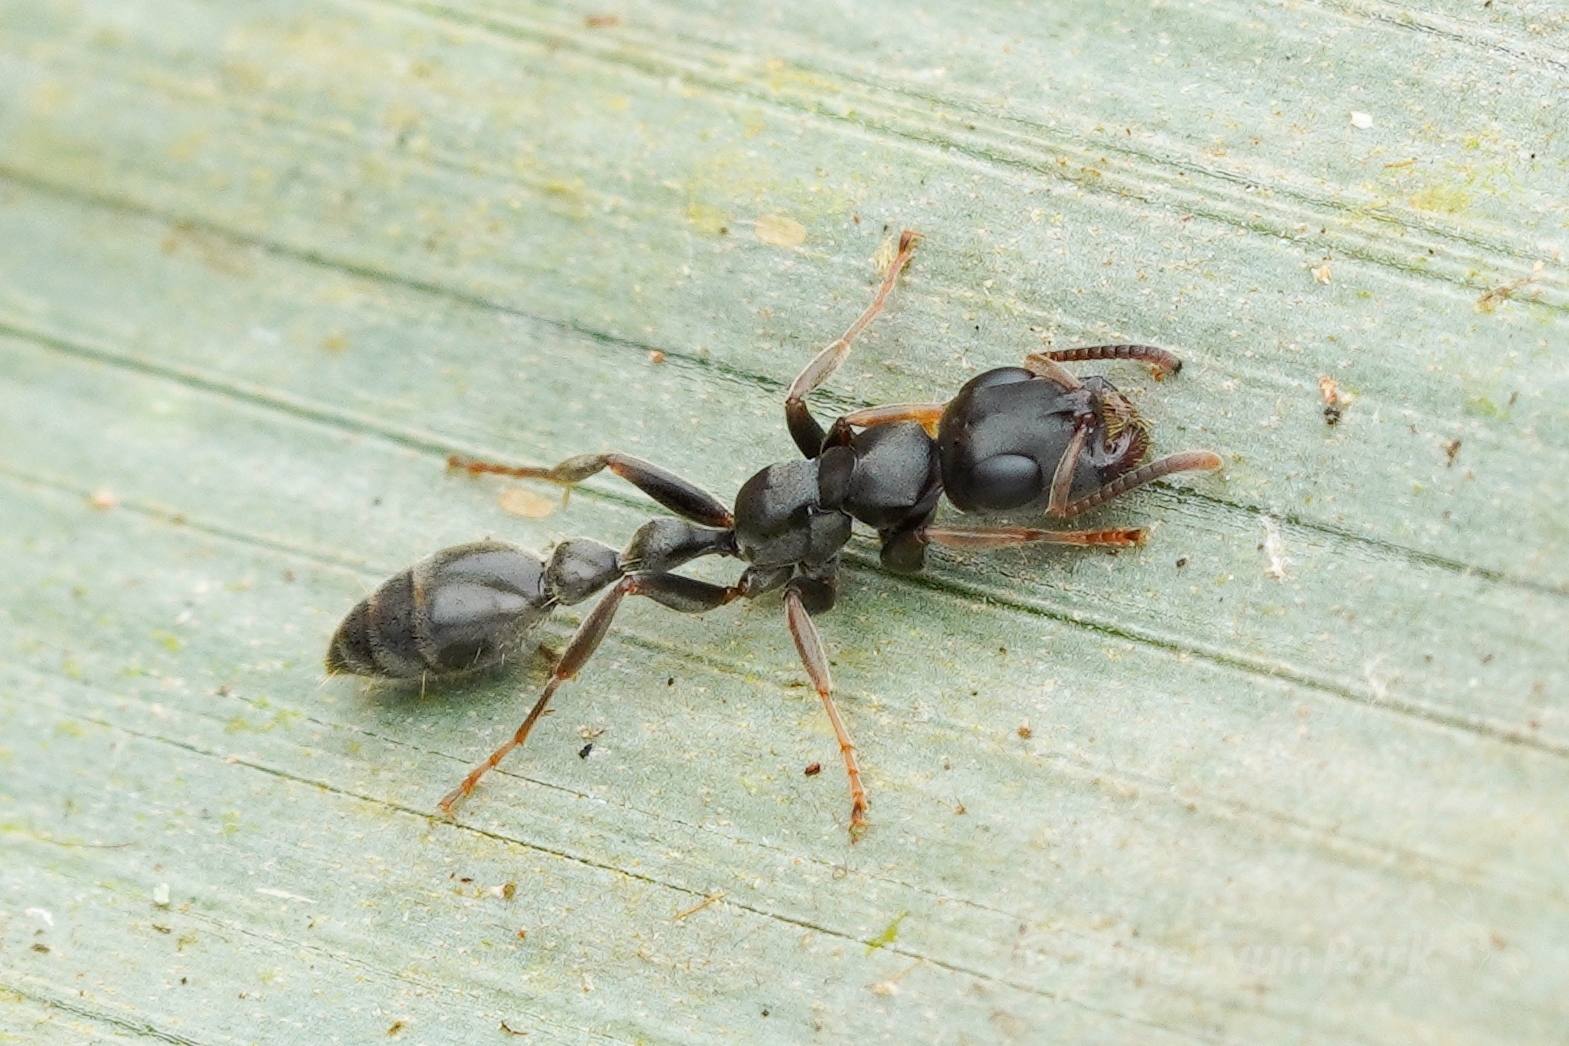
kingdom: Animalia
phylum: Arthropoda
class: Insecta
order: Hymenoptera
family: Formicidae
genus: Tetraponera
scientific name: Tetraponera pilosa
